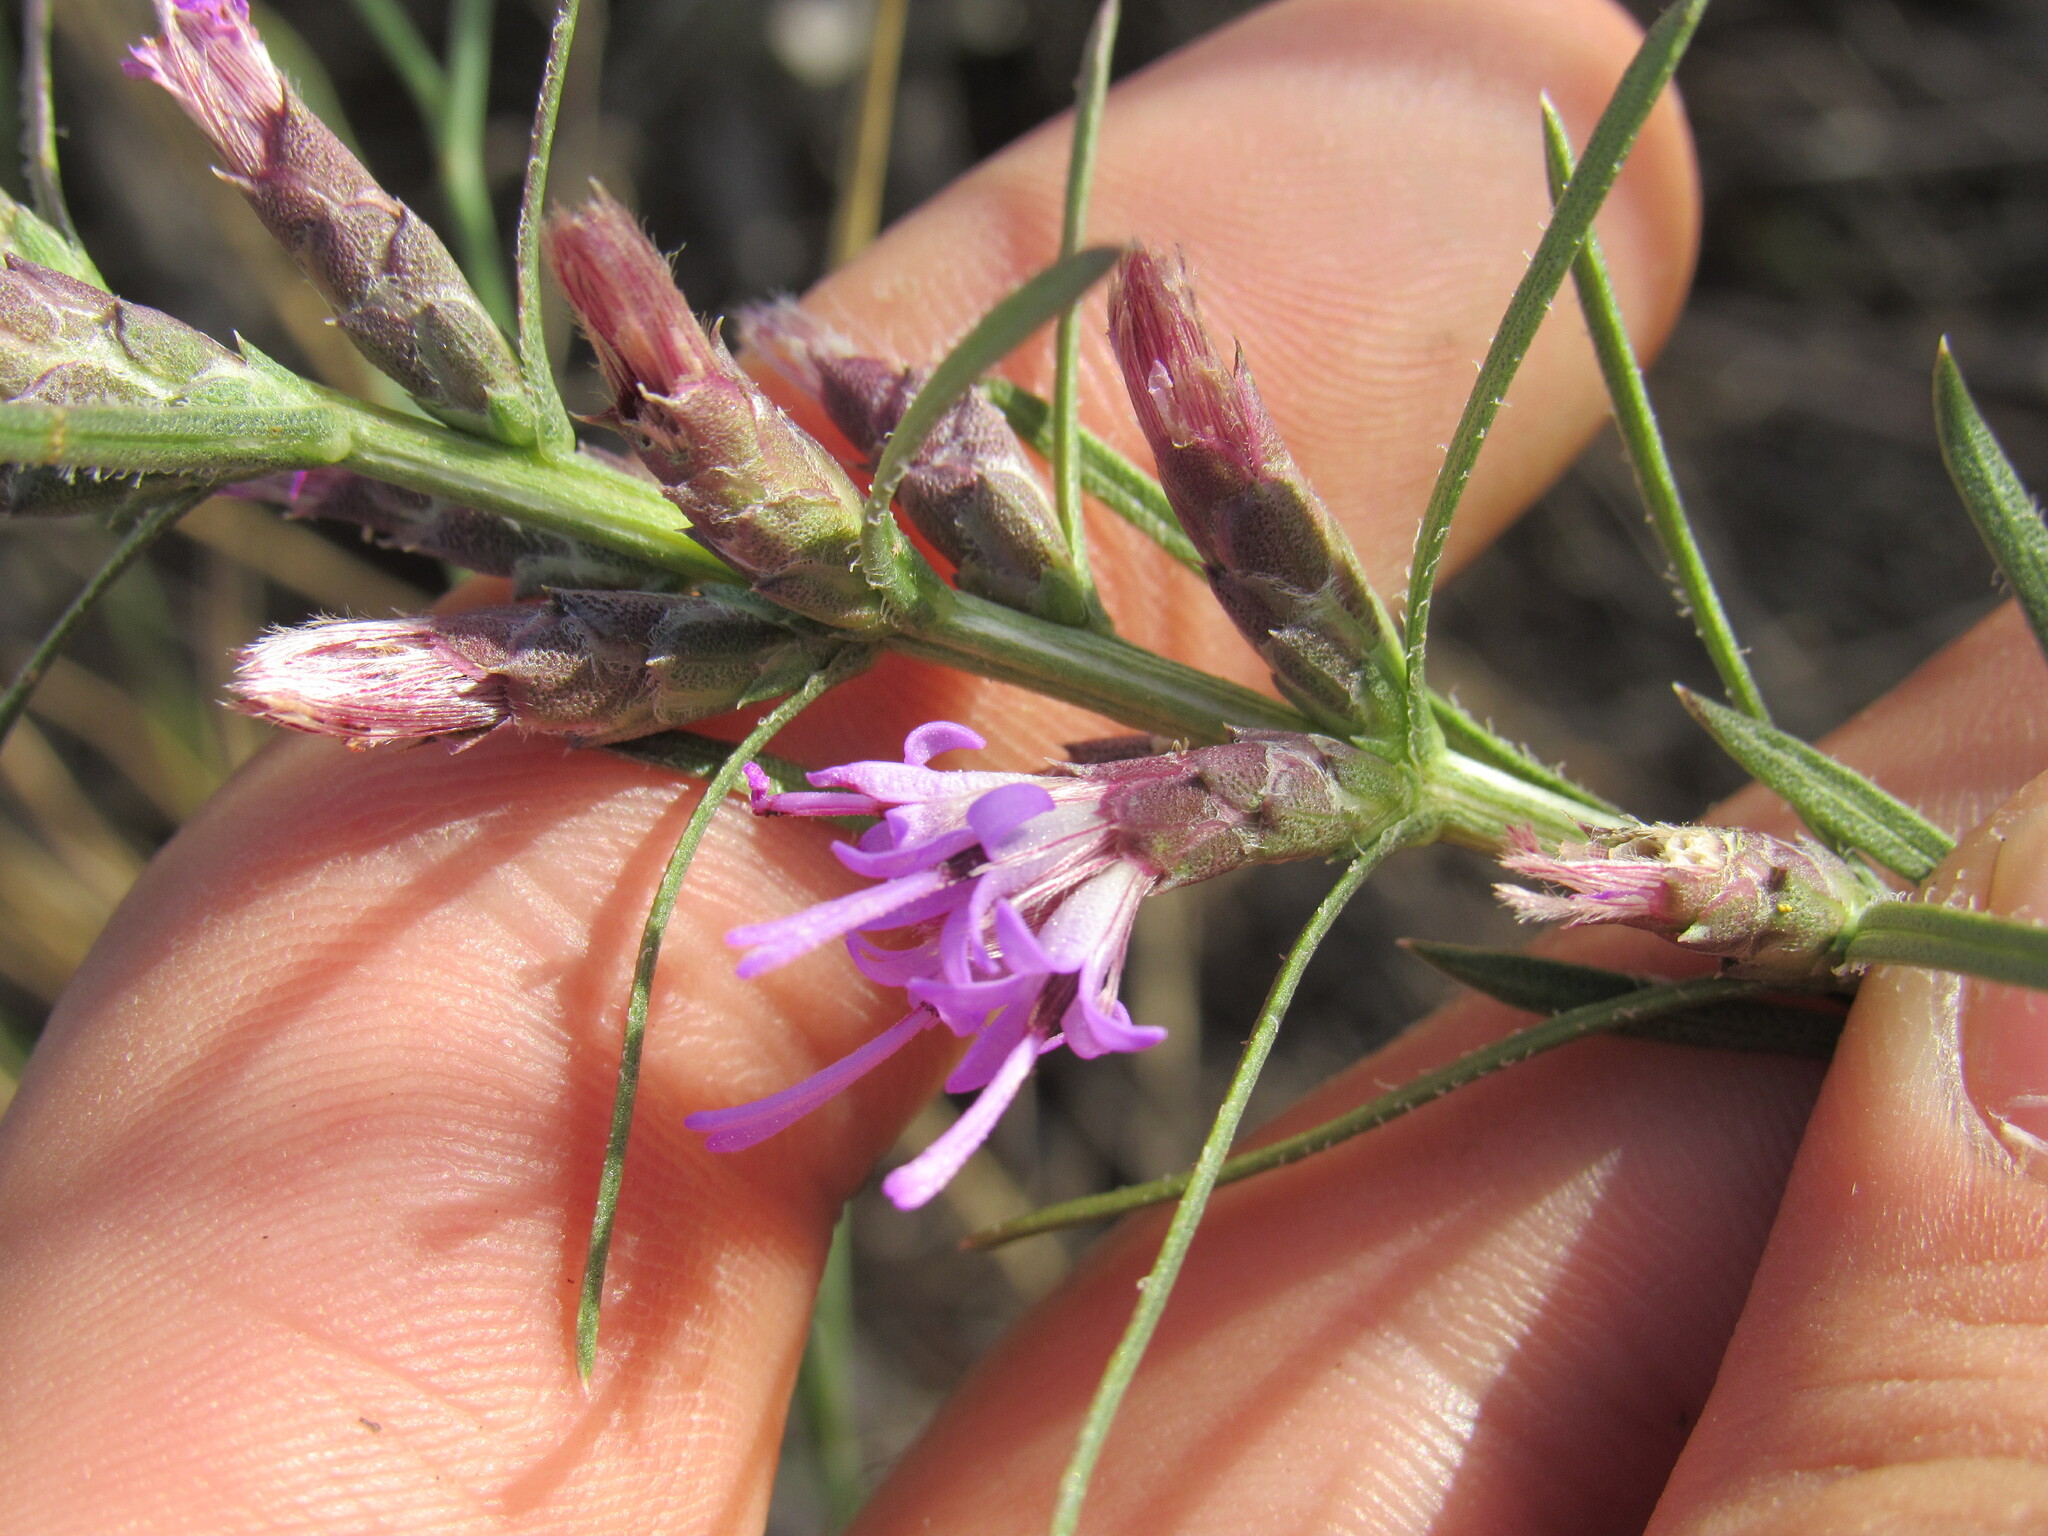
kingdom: Plantae
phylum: Tracheophyta
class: Magnoliopsida
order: Asterales
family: Asteraceae
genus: Liatris
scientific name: Liatris punctata
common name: Dotted gayfeather
